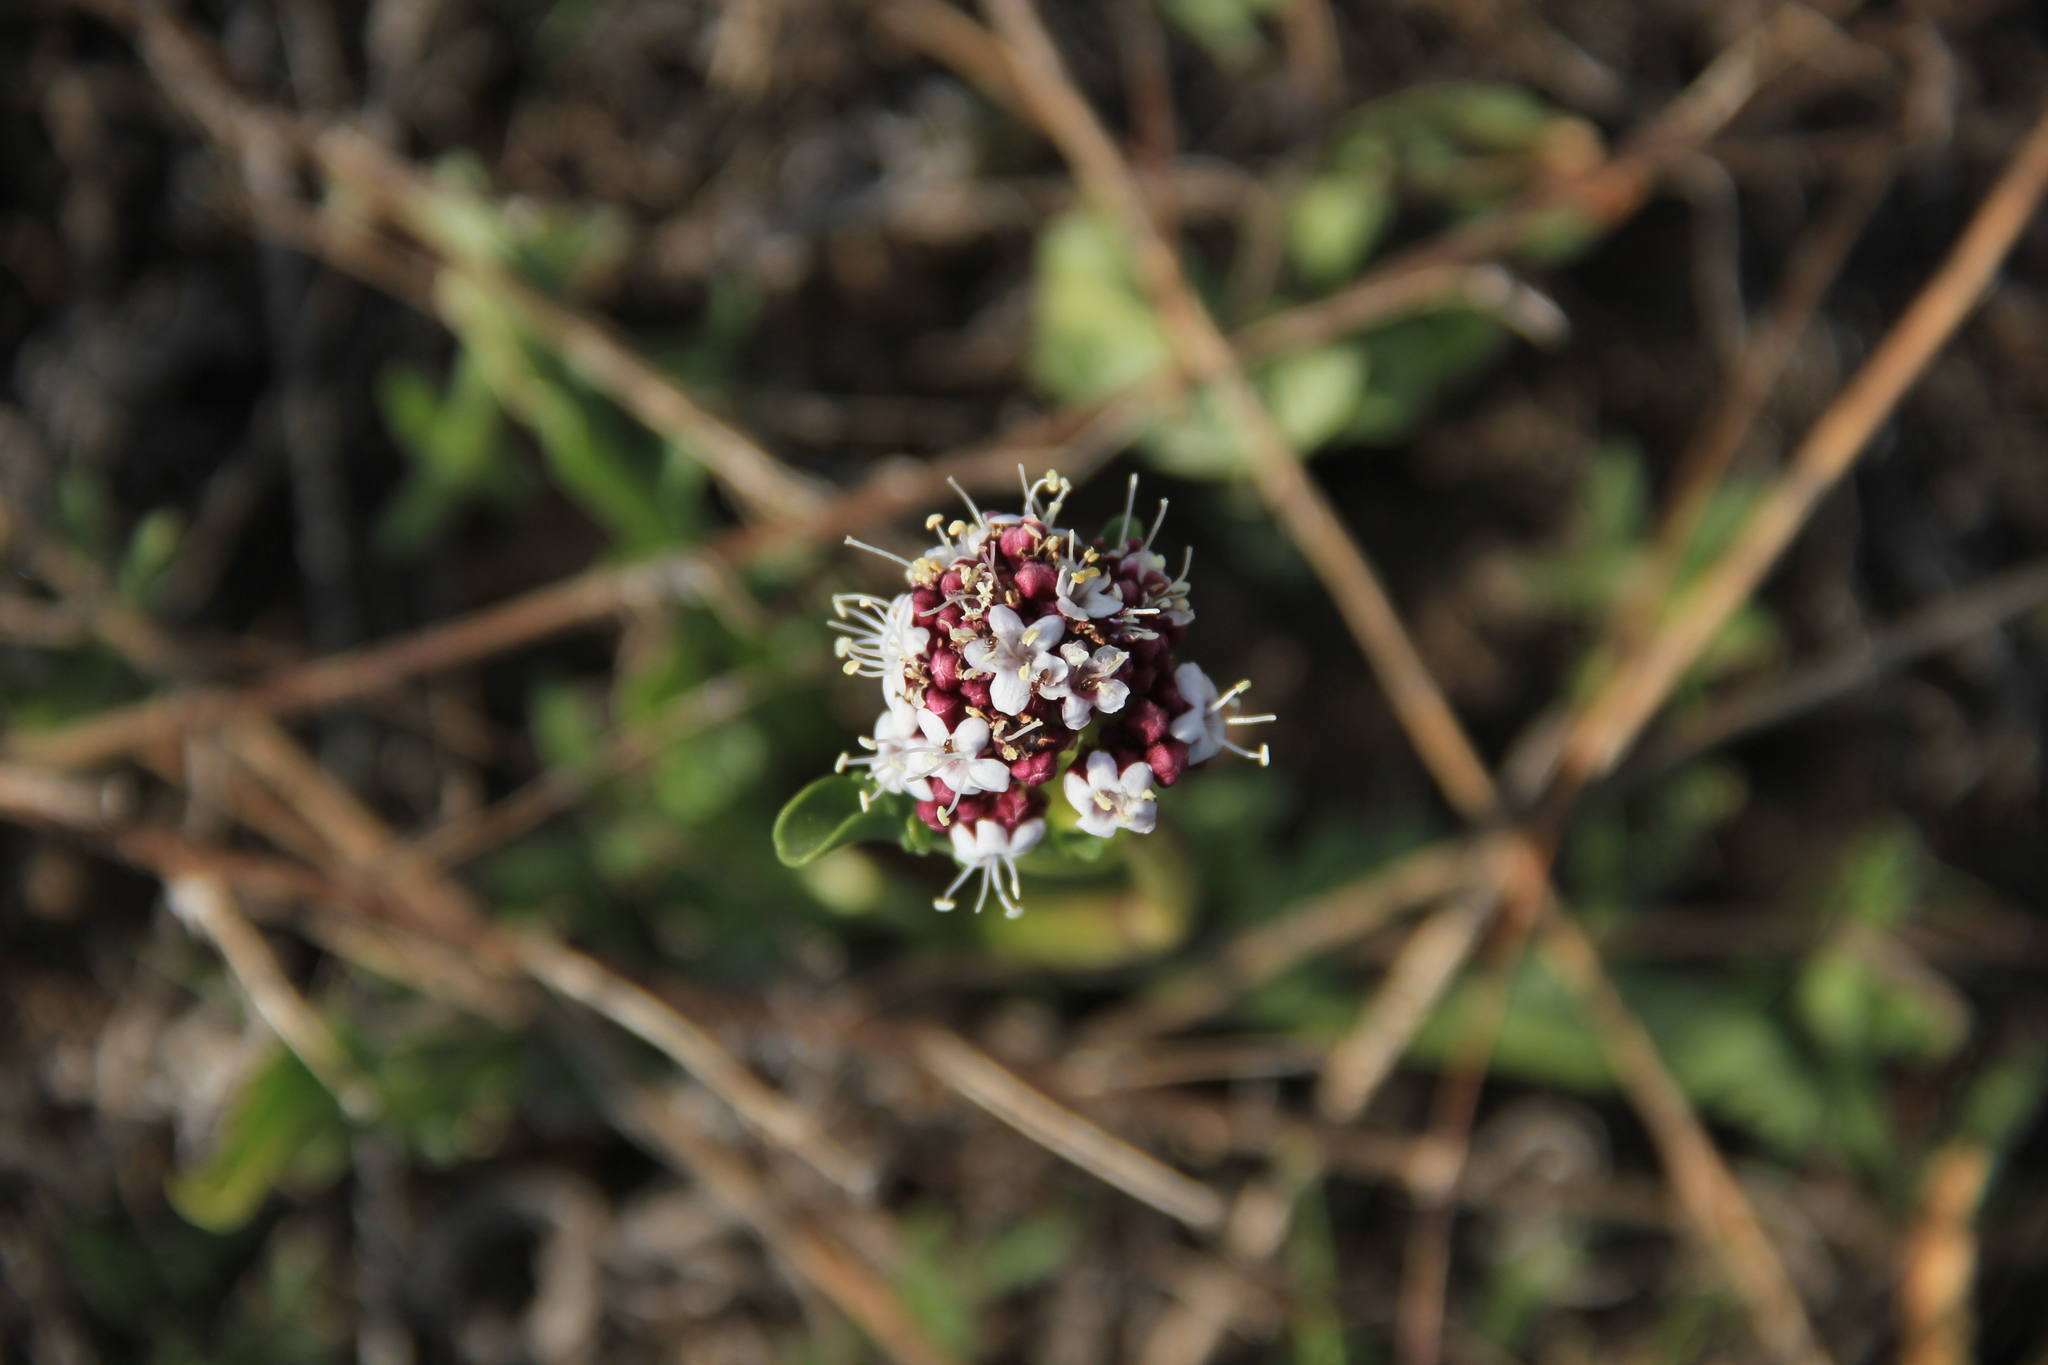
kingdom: Plantae
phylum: Tracheophyta
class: Magnoliopsida
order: Dipsacales
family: Caprifoliaceae
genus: Valeriana
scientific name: Valeriana papilla
